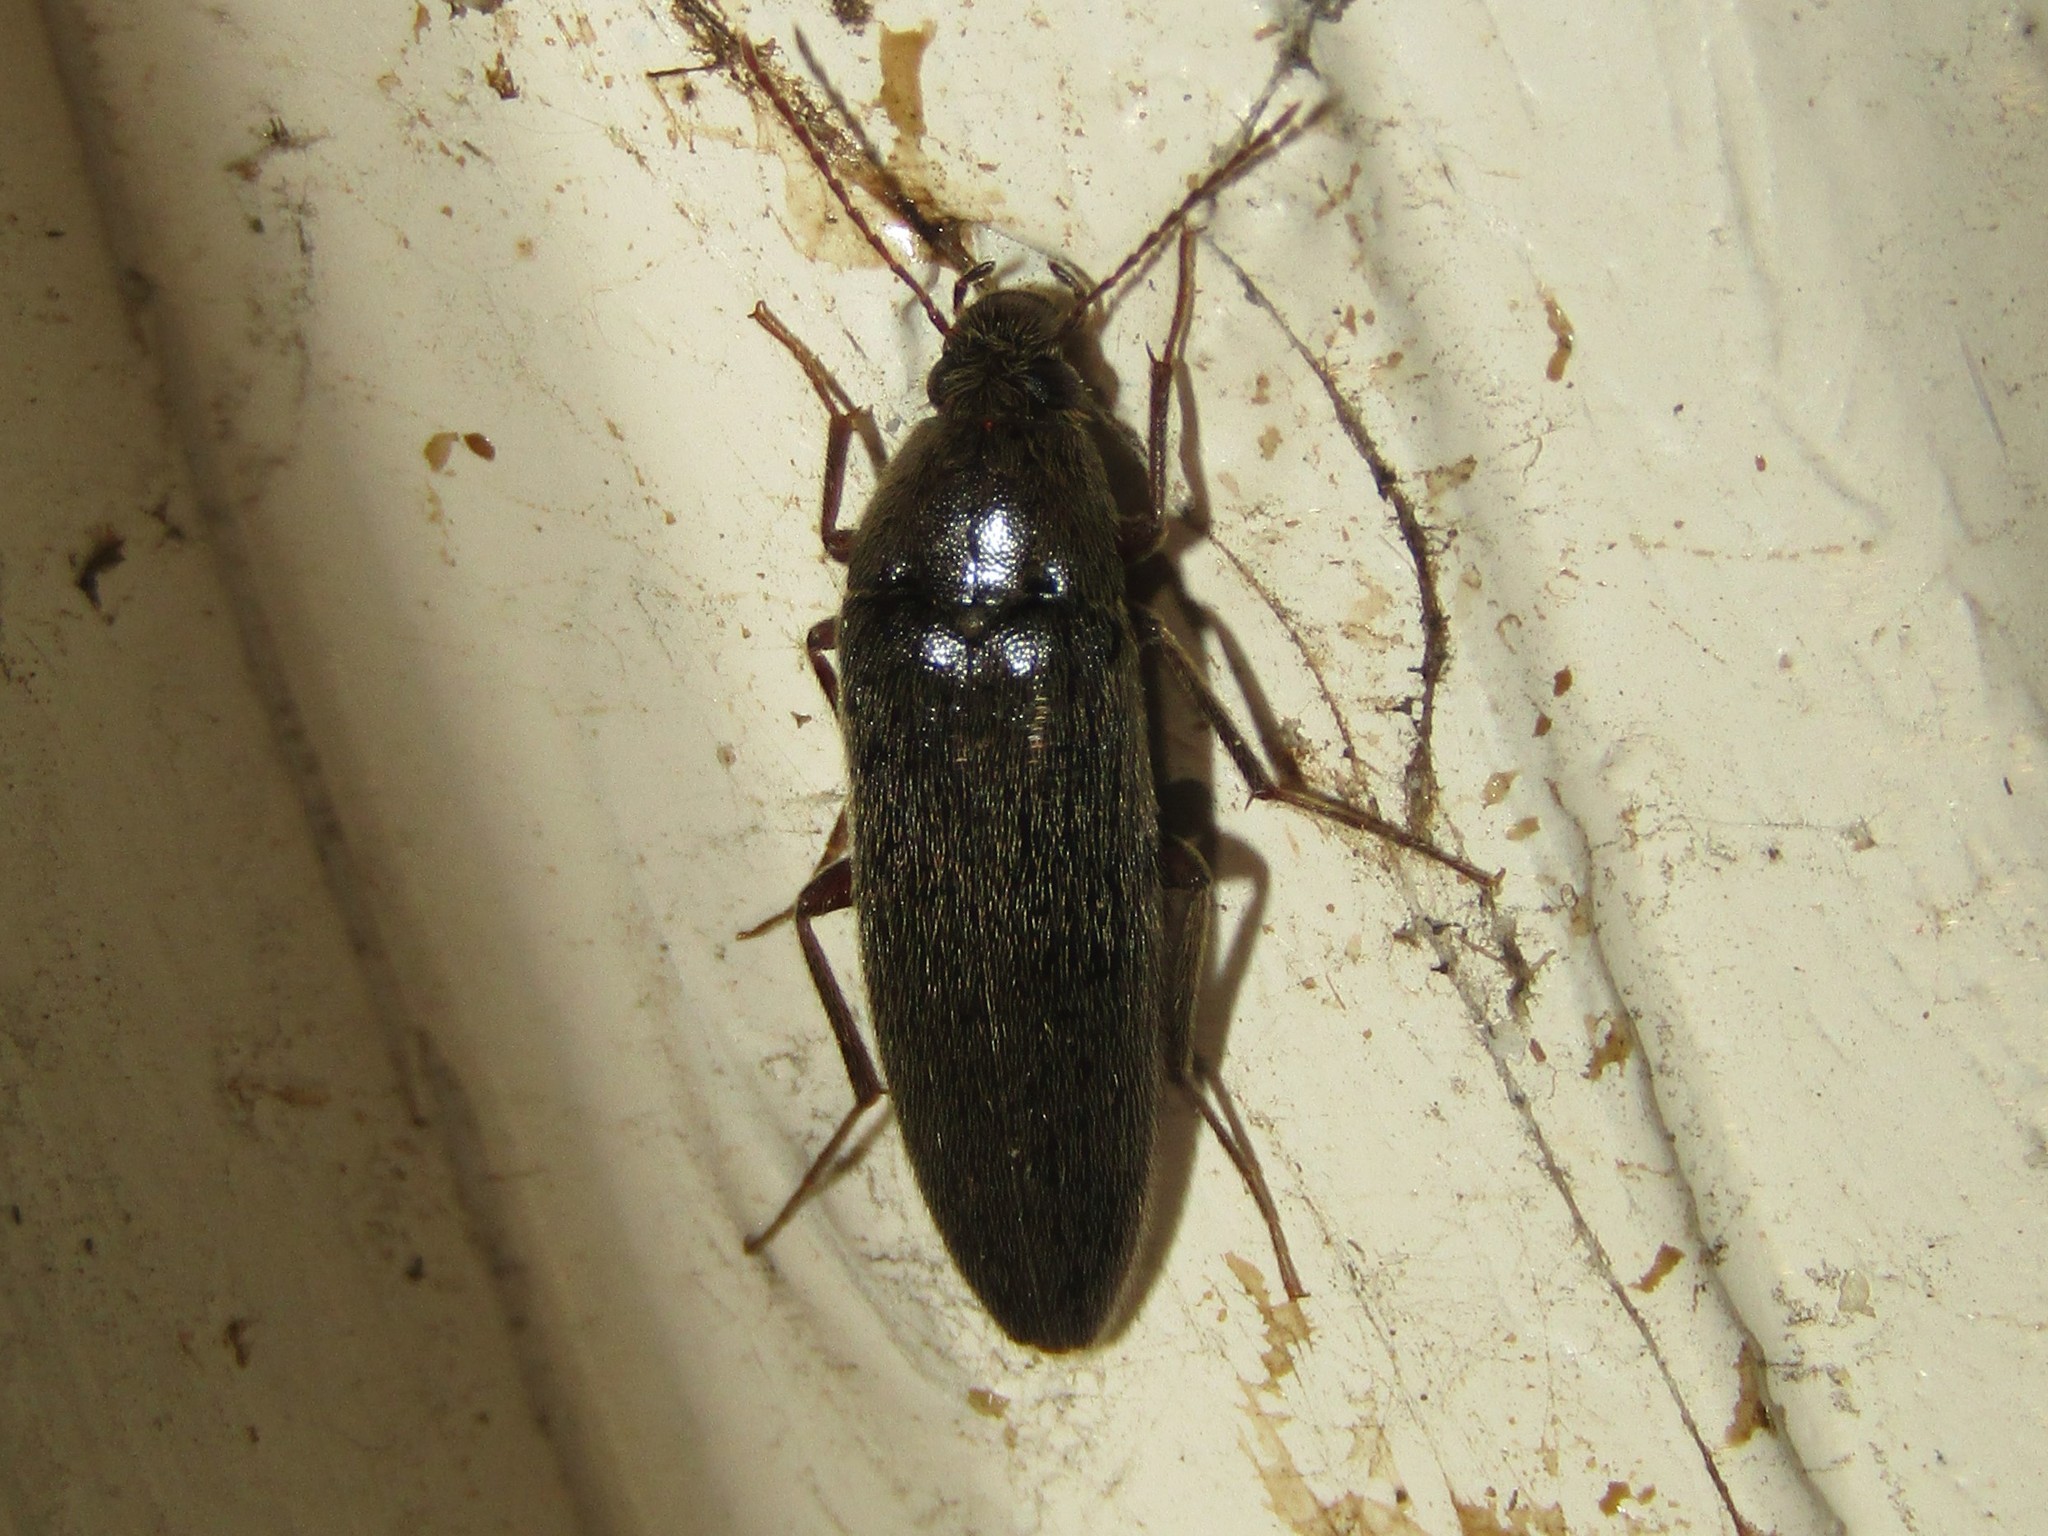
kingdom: Animalia
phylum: Arthropoda
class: Insecta
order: Coleoptera
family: Synchroidae
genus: Synchroa
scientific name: Synchroa punctata
